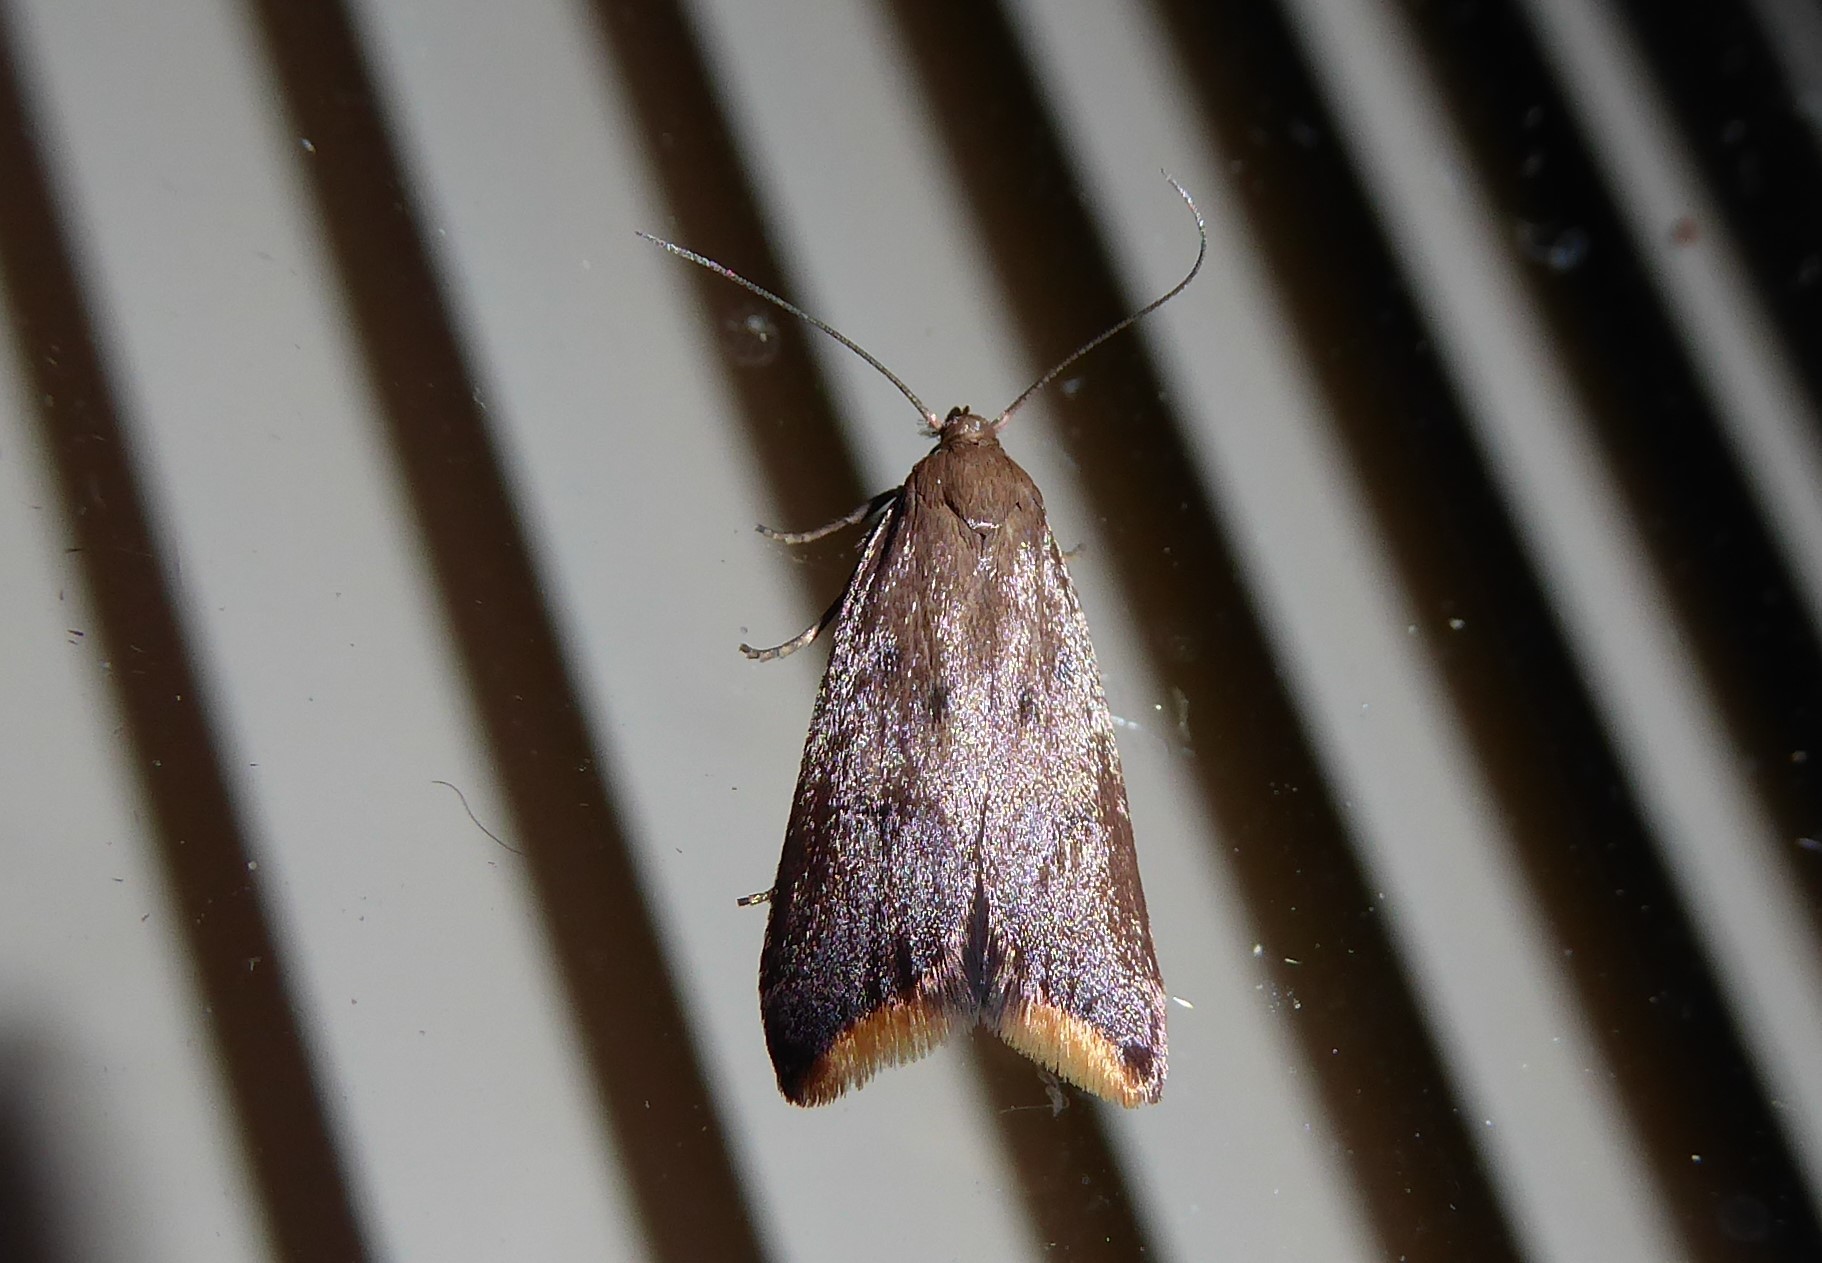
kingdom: Animalia
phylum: Arthropoda
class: Insecta
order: Lepidoptera
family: Oecophoridae
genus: Tachystola
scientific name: Tachystola acroxantha
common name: Ruddy streak
